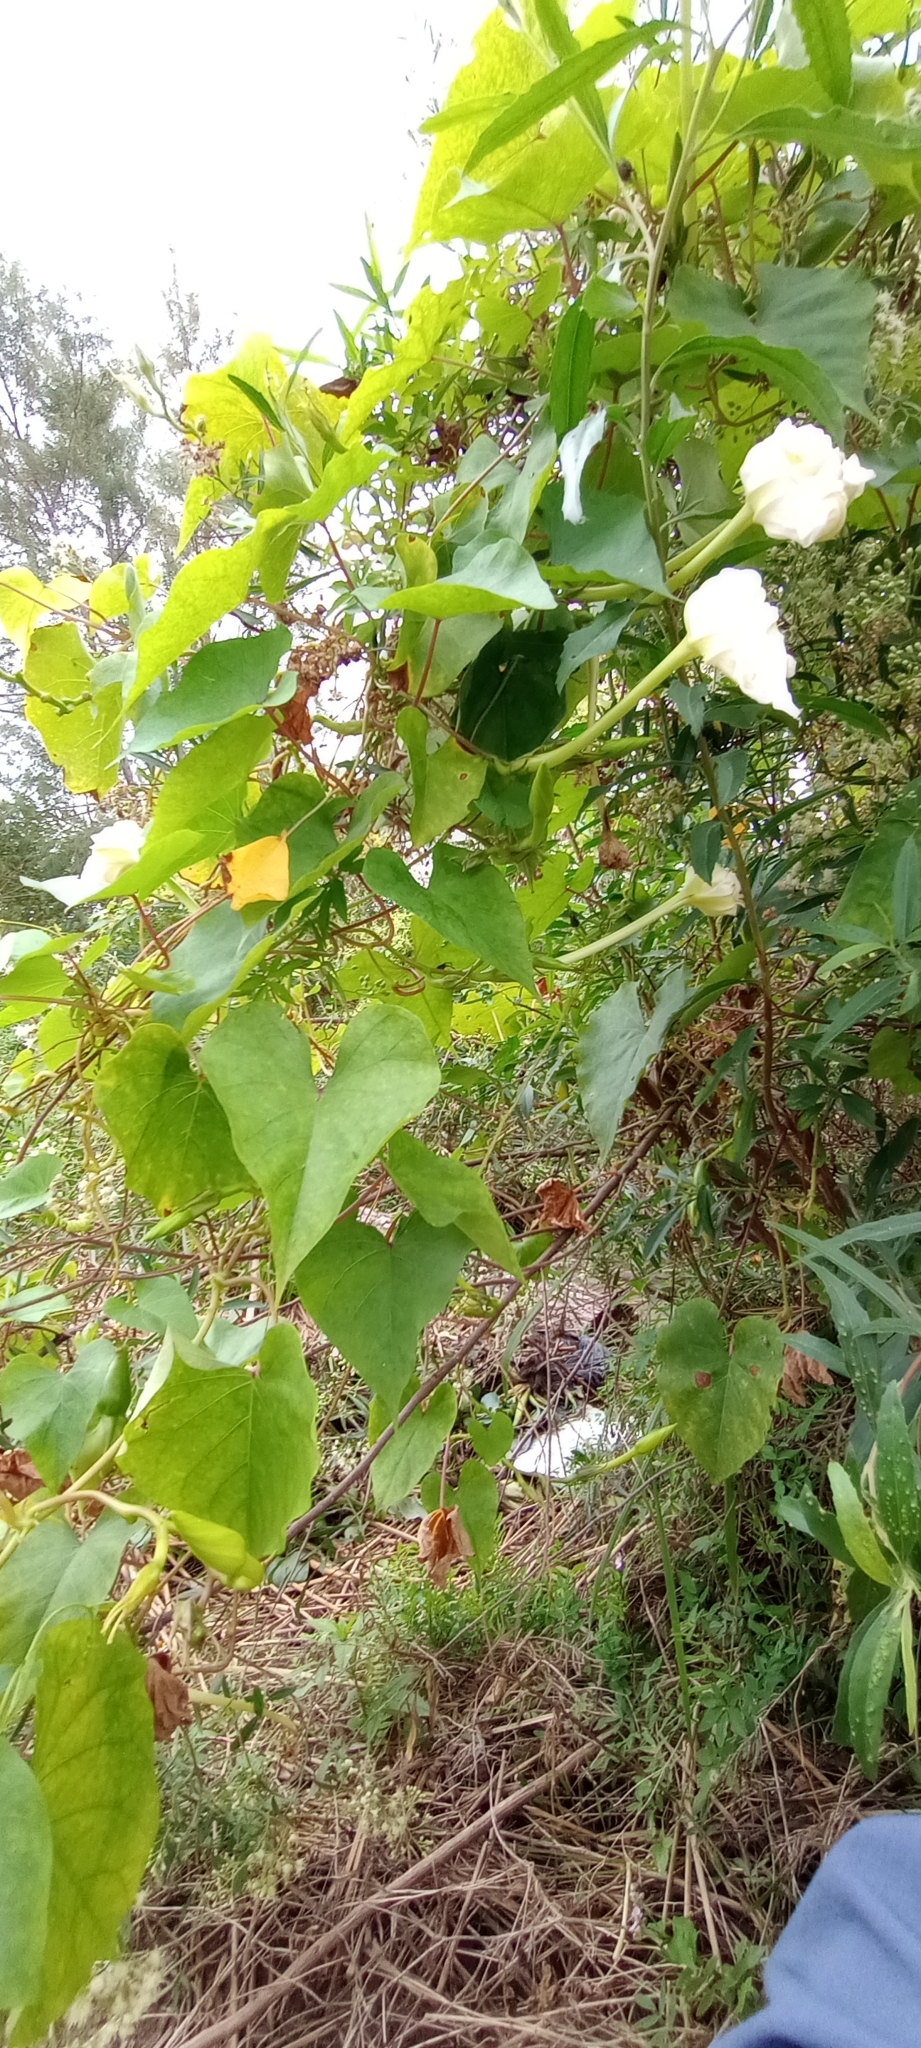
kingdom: Plantae
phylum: Tracheophyta
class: Magnoliopsida
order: Solanales
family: Convolvulaceae
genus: Ipomoea
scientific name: Ipomoea alba
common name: Moonflower
